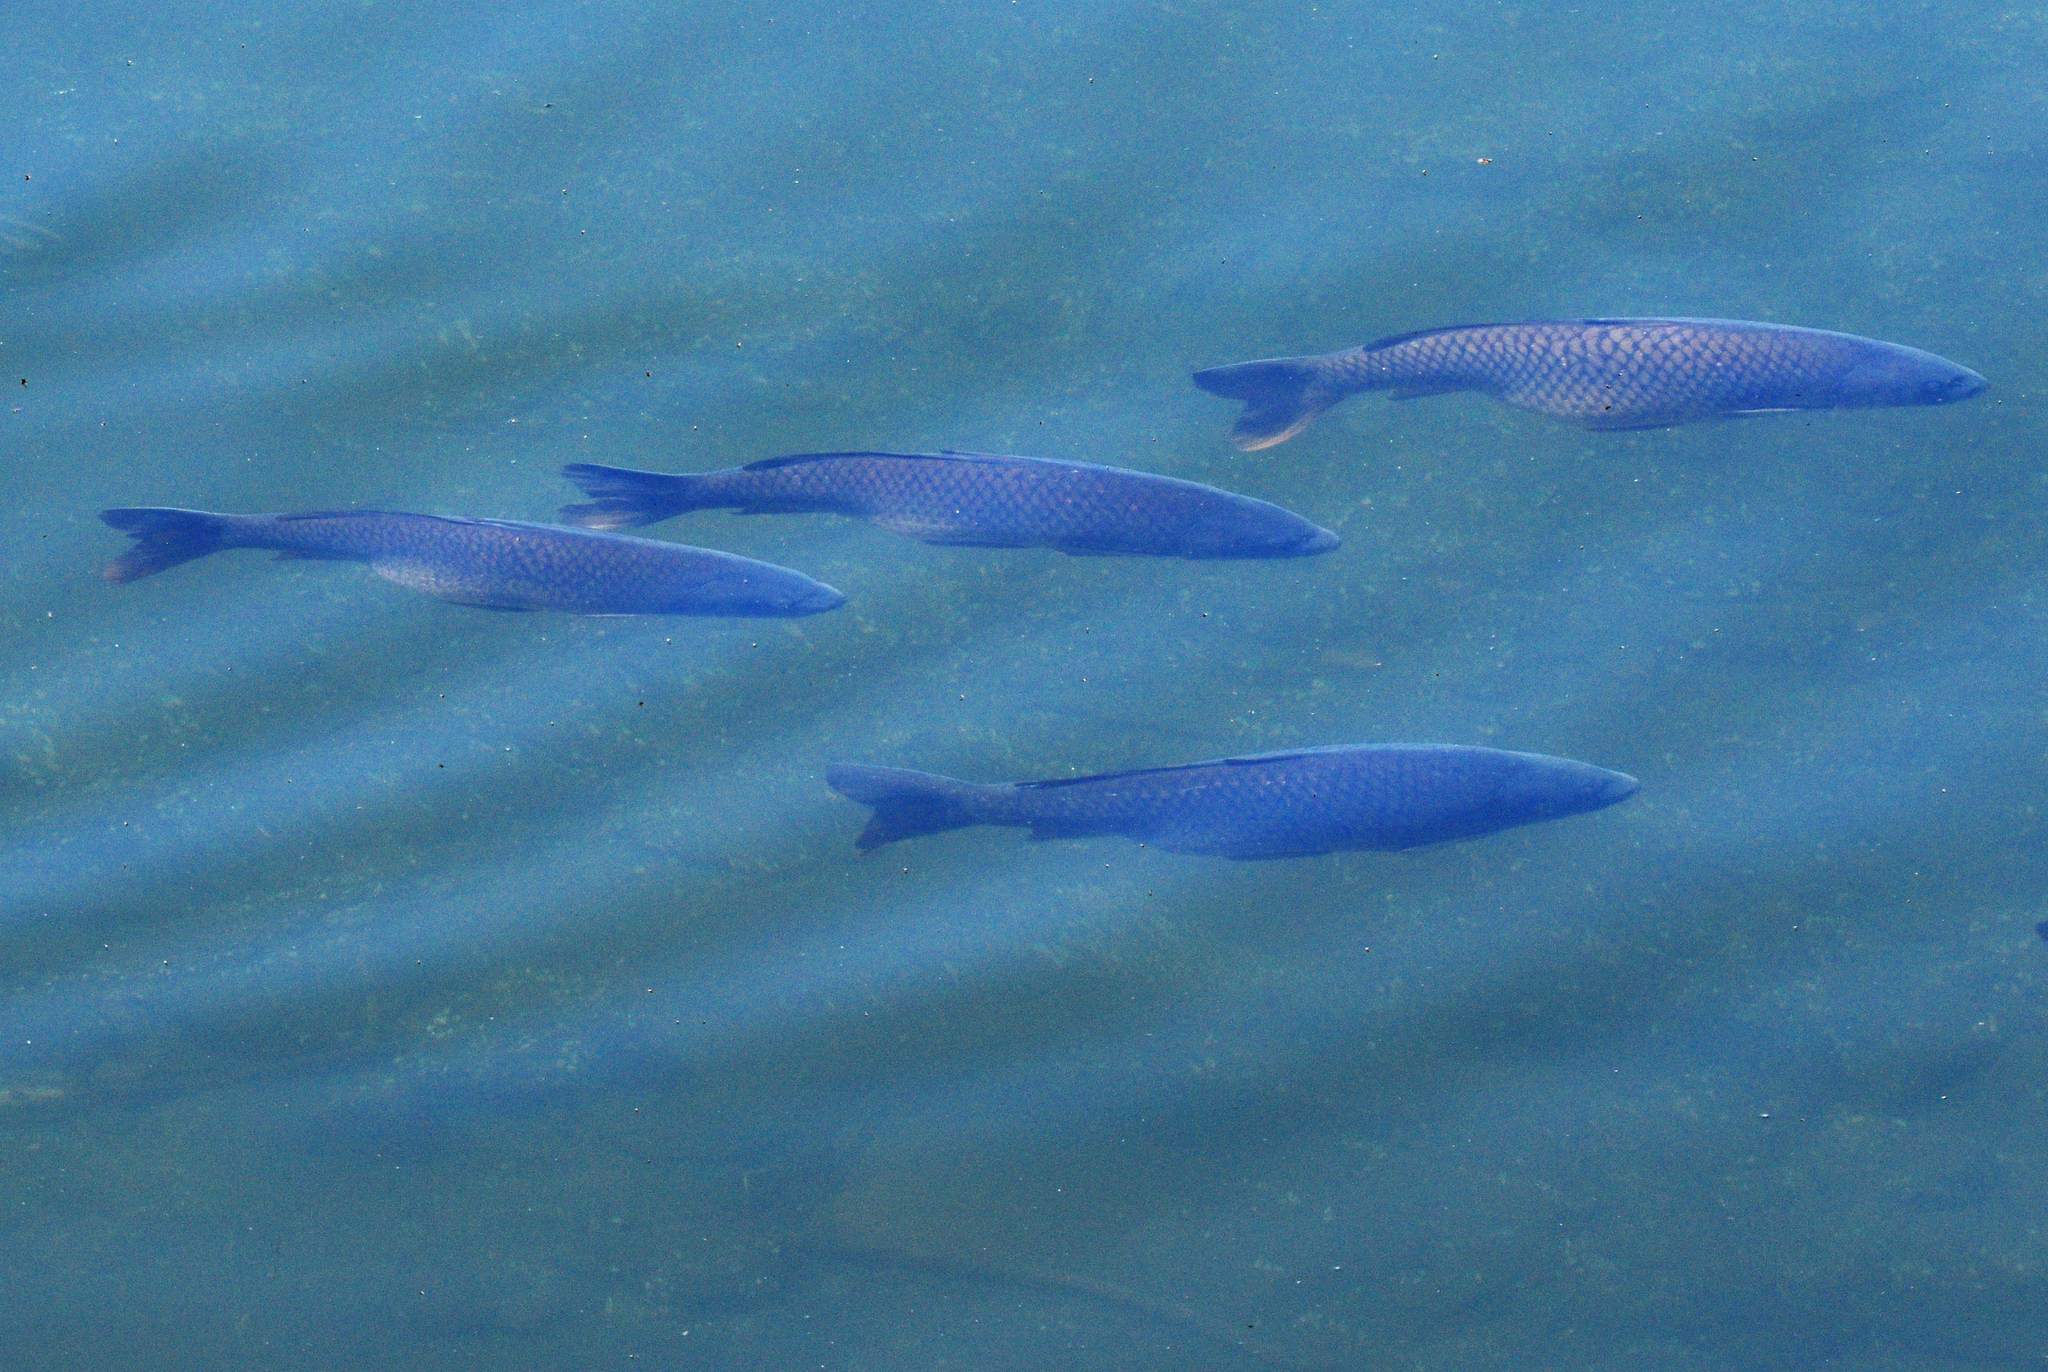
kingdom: Animalia
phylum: Chordata
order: Cypriniformes
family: Cyprinidae
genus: Cyprinus
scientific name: Cyprinus carpio
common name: Common carp
